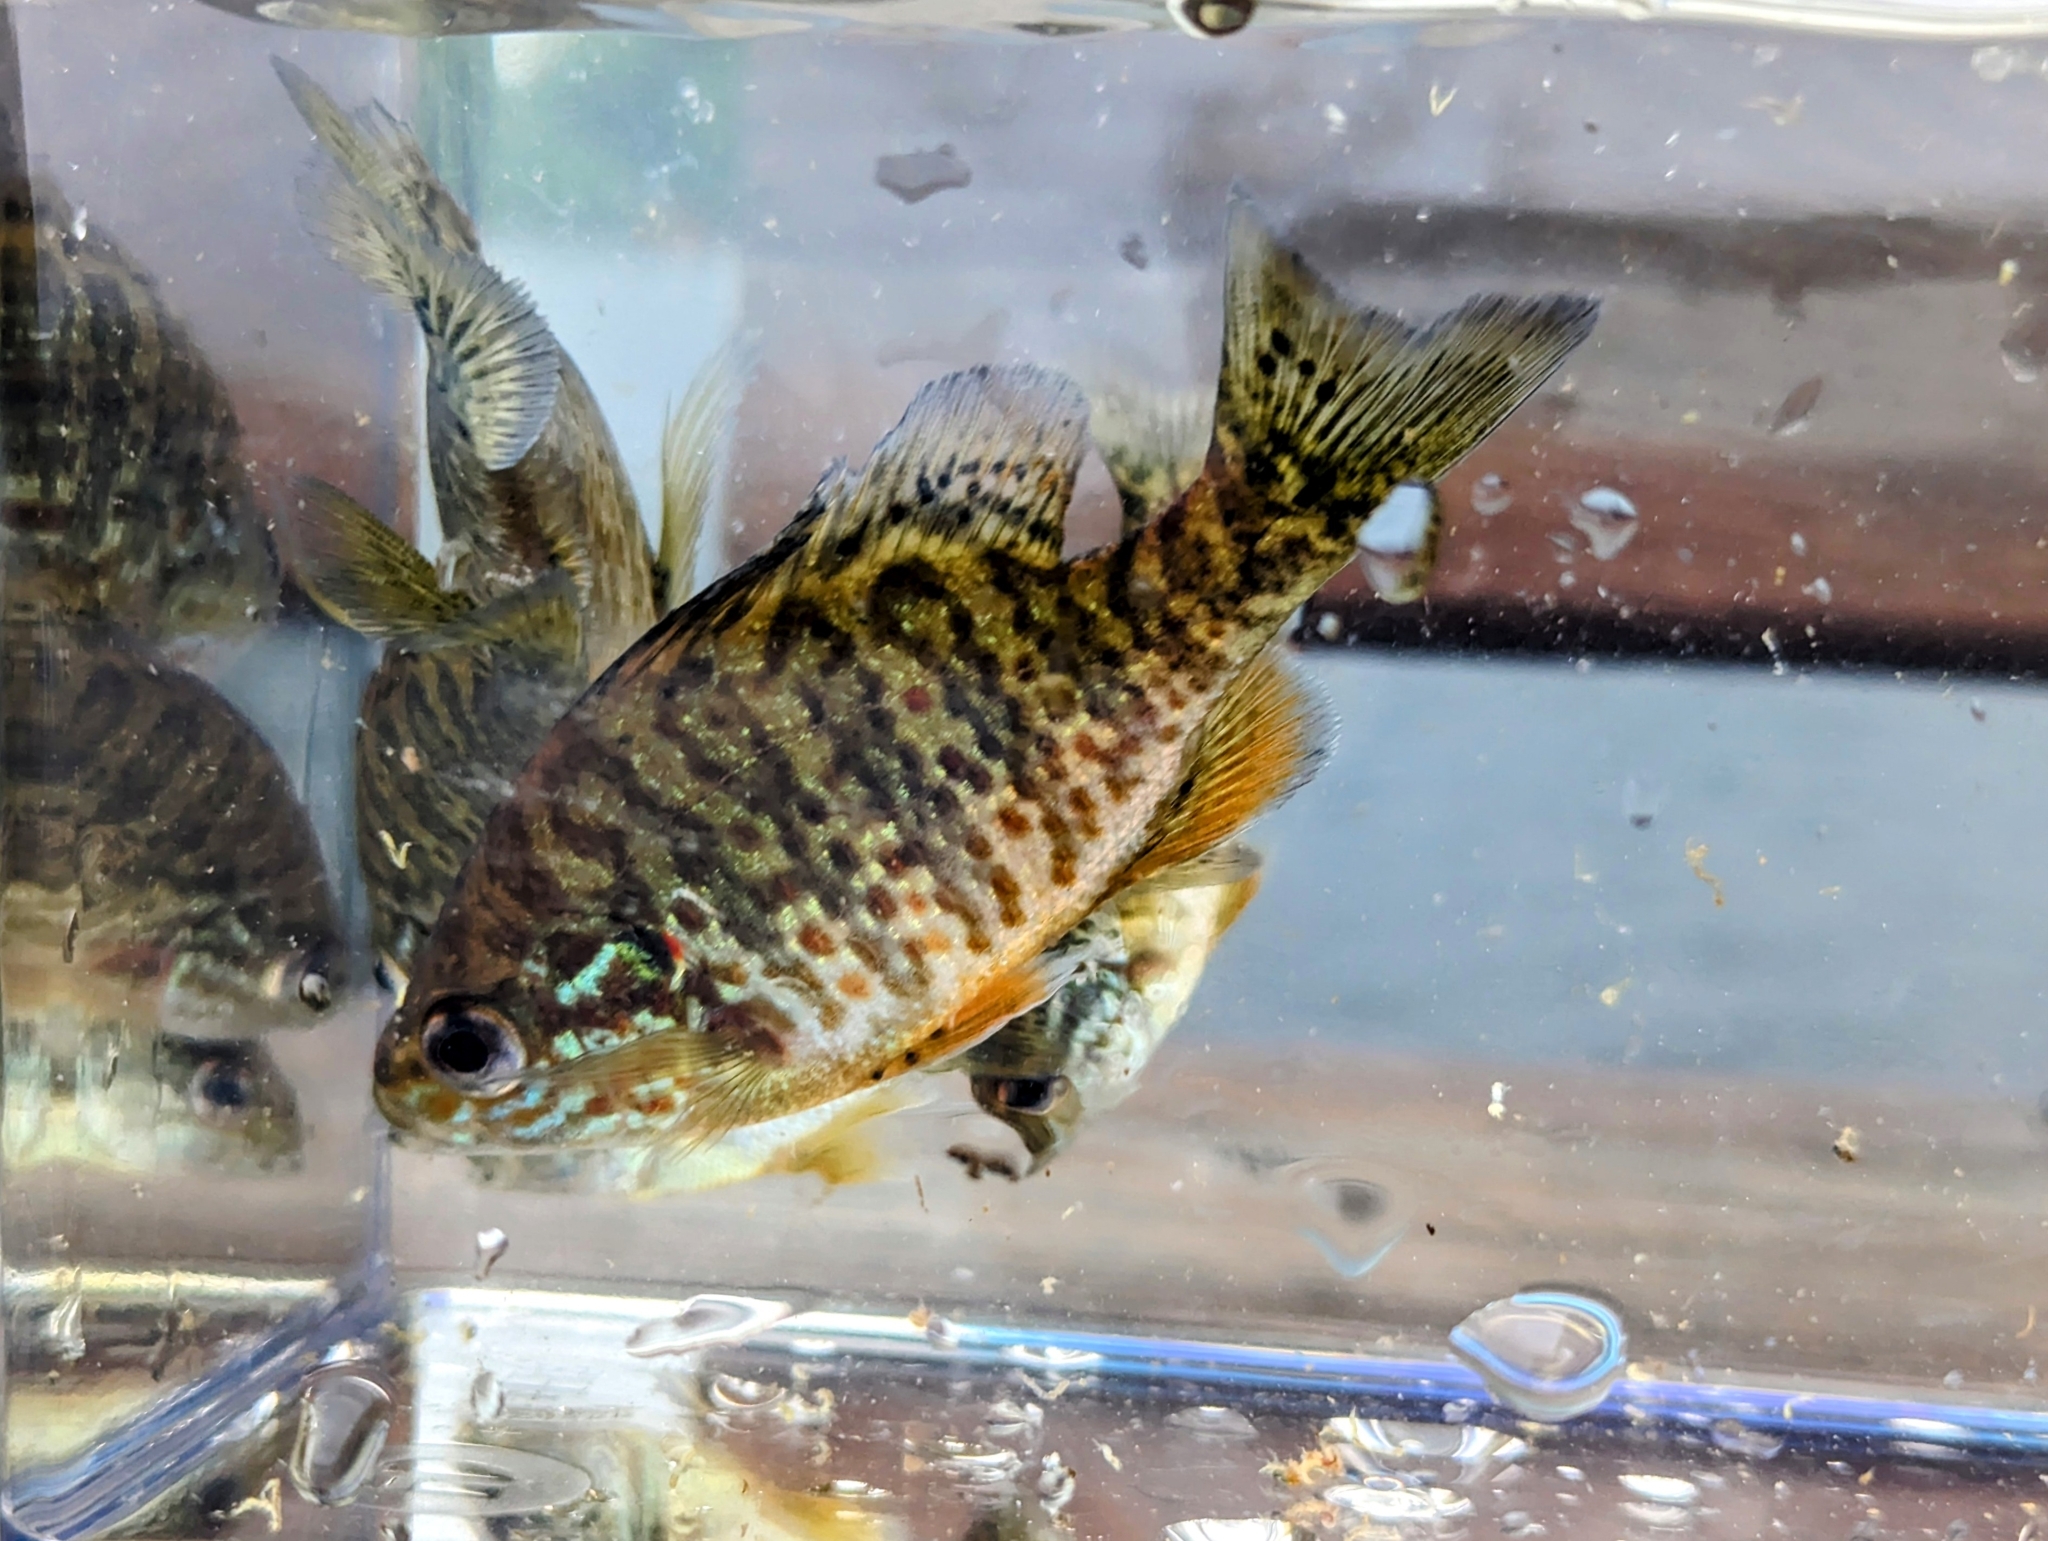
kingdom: Animalia
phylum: Chordata
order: Perciformes
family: Centrarchidae
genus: Lepomis
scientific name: Lepomis gibbosus
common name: Pumpkinseed
